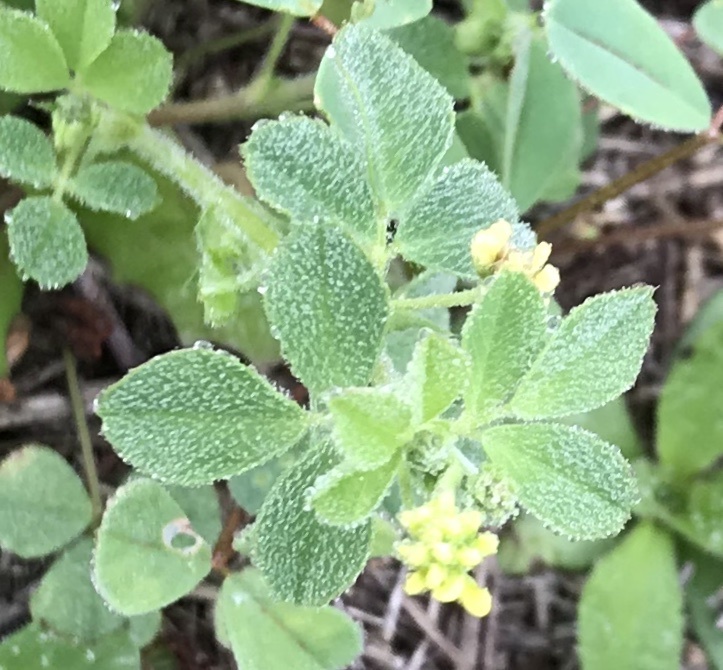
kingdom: Plantae
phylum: Tracheophyta
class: Magnoliopsida
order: Fabales
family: Fabaceae
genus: Medicago
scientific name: Medicago lupulina
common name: Black medick
